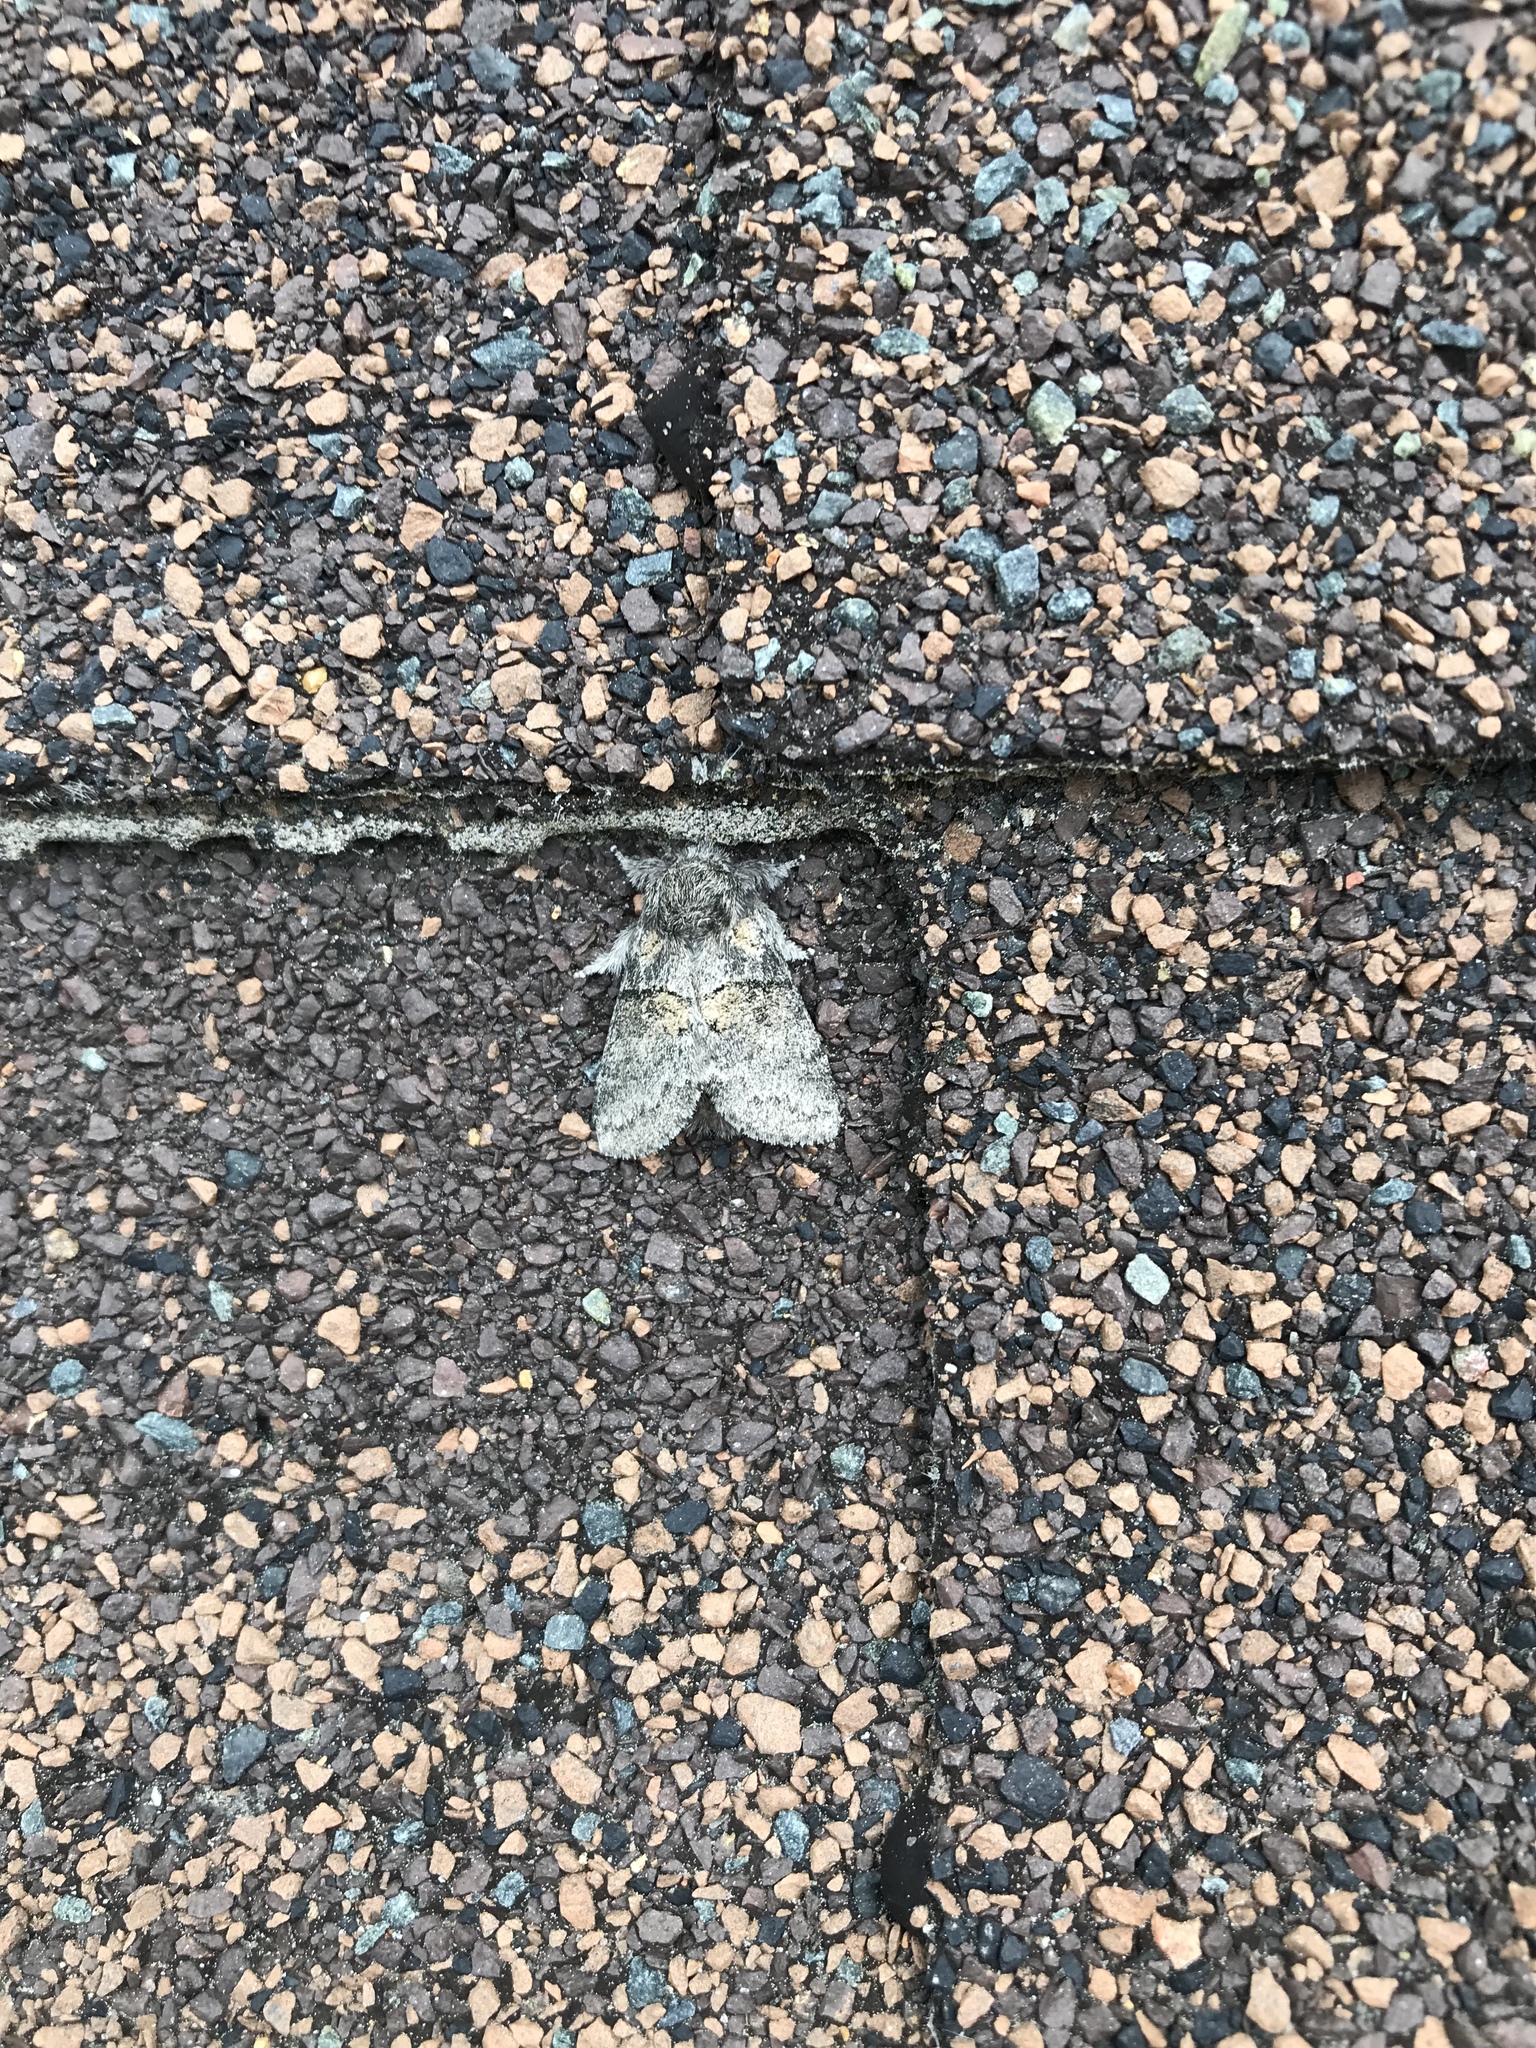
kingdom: Animalia
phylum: Arthropoda
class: Insecta
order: Lepidoptera
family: Notodontidae
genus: Gluphisia
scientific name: Gluphisia septentrionis
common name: Common gluphisia
